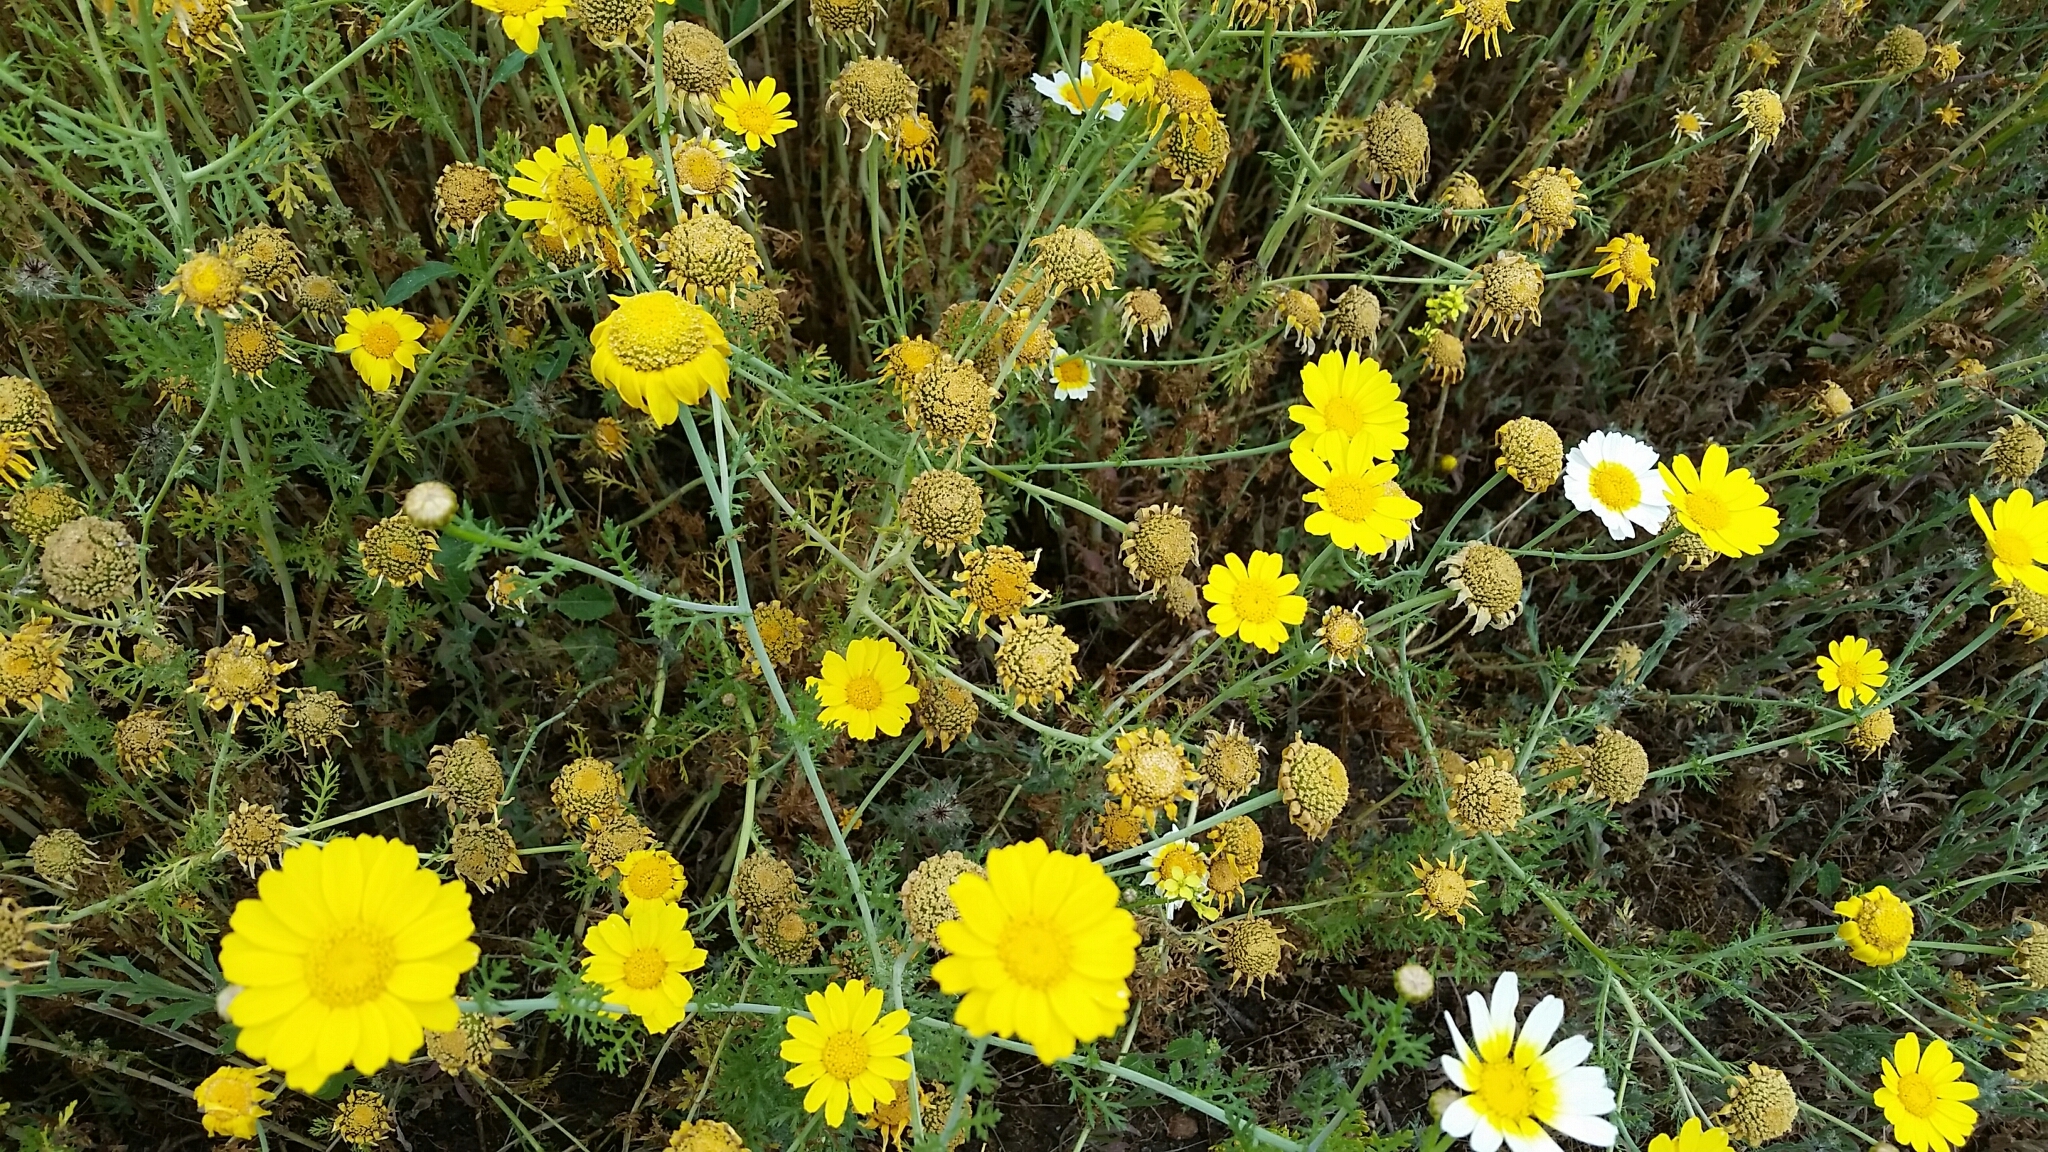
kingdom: Plantae
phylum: Tracheophyta
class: Magnoliopsida
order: Asterales
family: Asteraceae
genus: Glebionis
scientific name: Glebionis coronaria
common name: Crowndaisy
